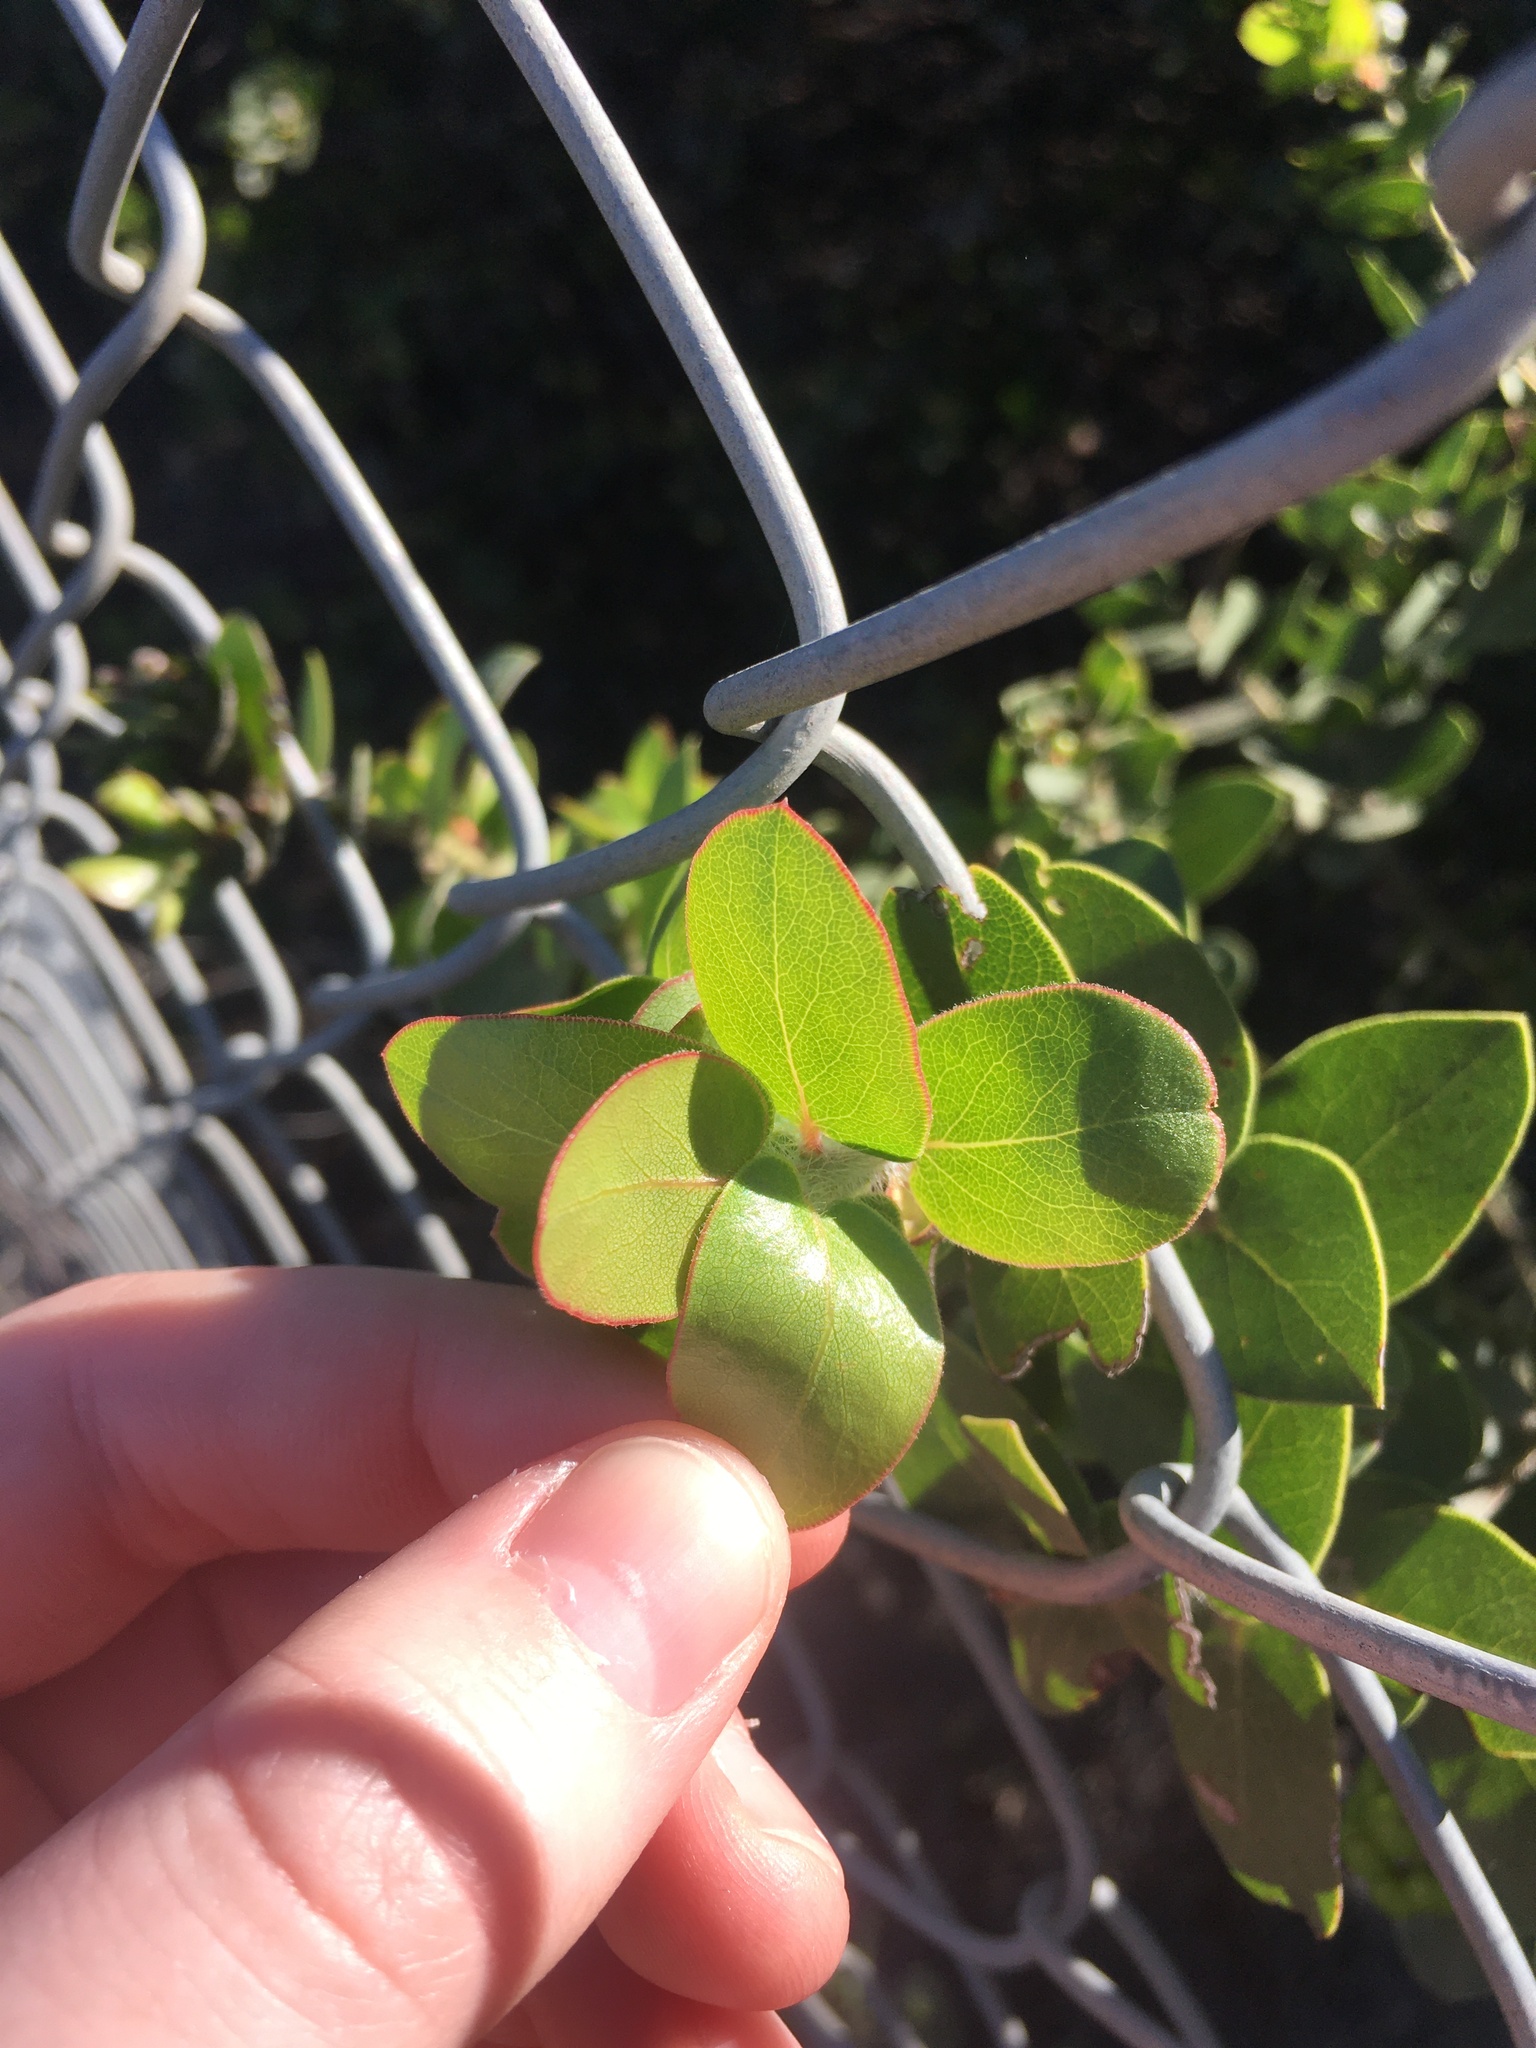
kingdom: Plantae
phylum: Tracheophyta
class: Magnoliopsida
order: Ericales
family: Ericaceae
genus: Arctostaphylos
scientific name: Arctostaphylos purissima
